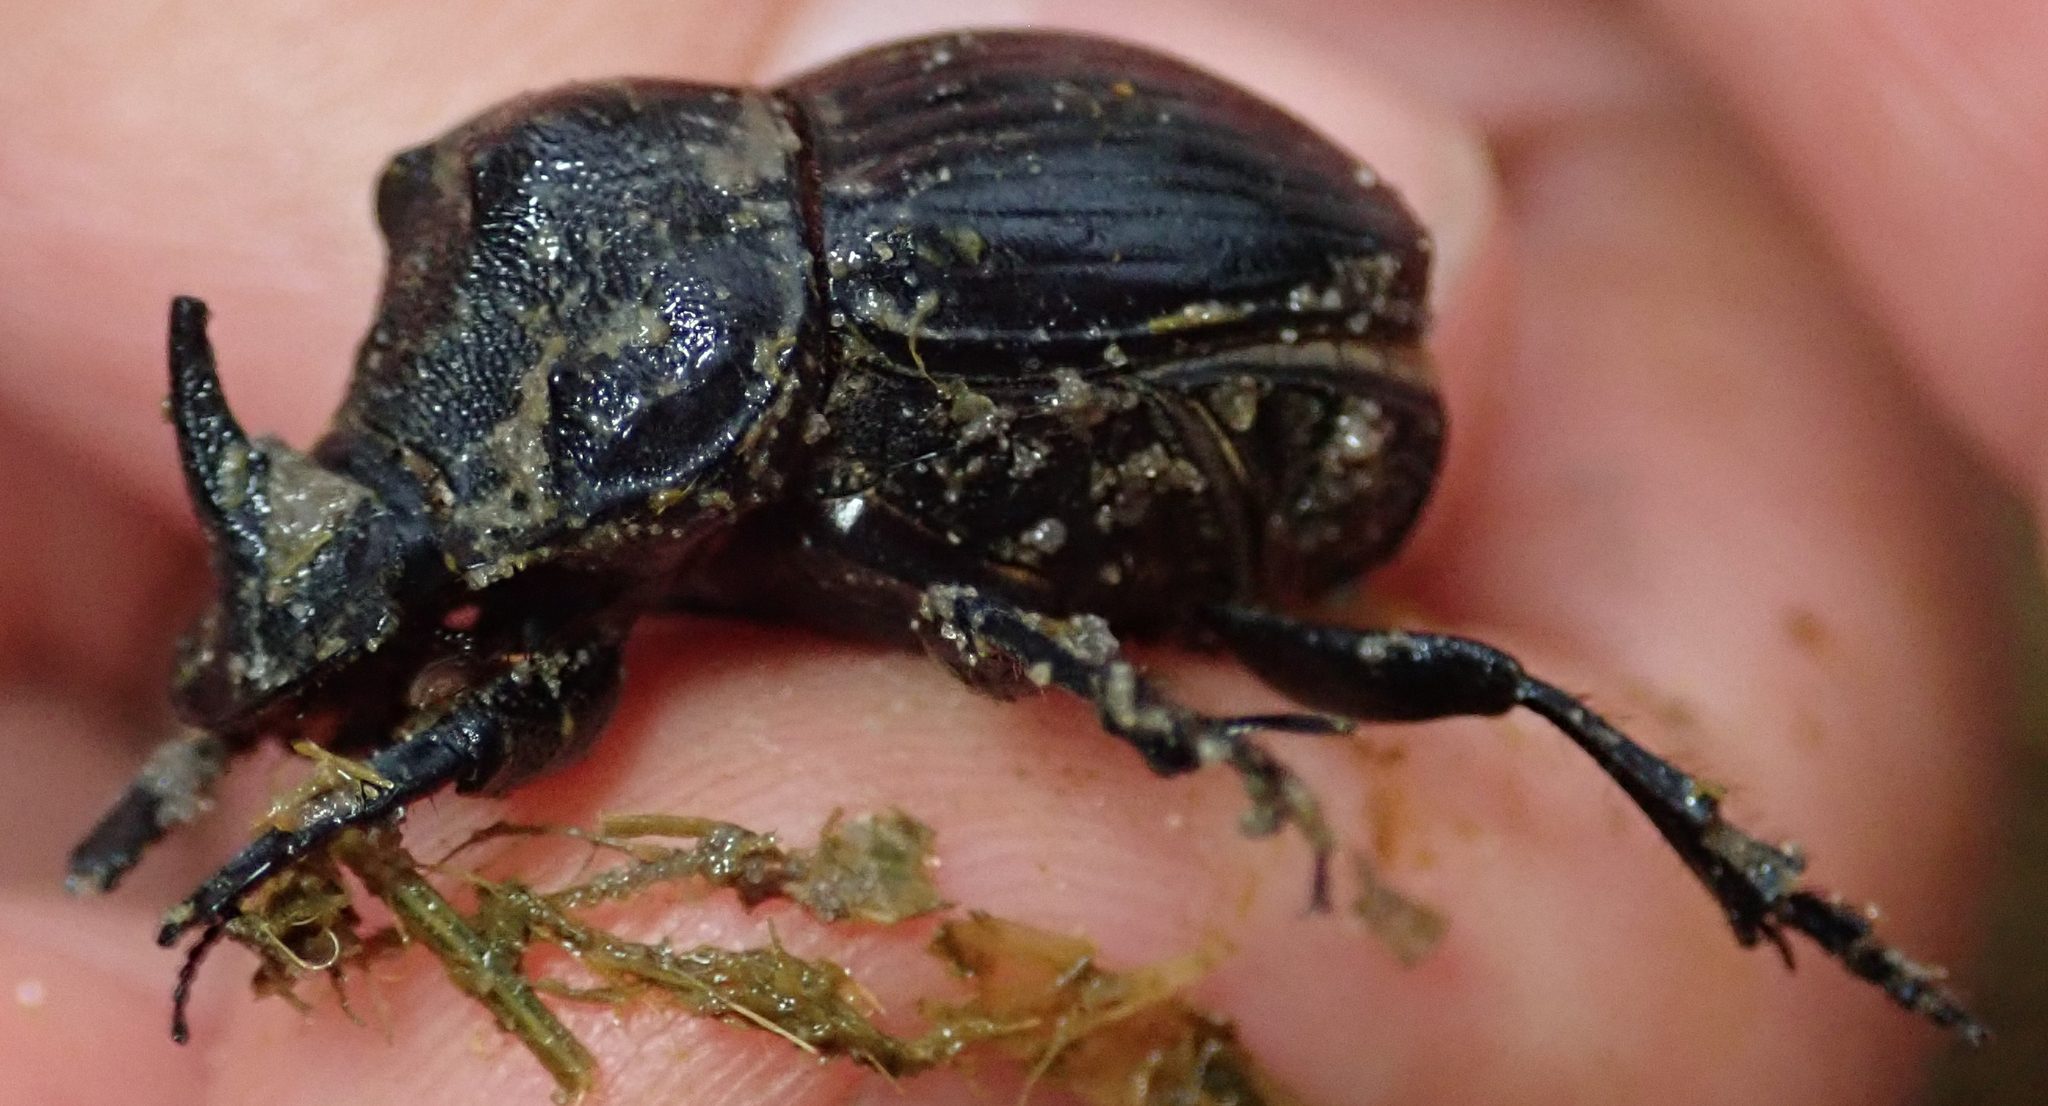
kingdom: Animalia
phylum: Arthropoda
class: Insecta
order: Coleoptera
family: Scarabaeidae
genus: Copris
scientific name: Copris elphenor
